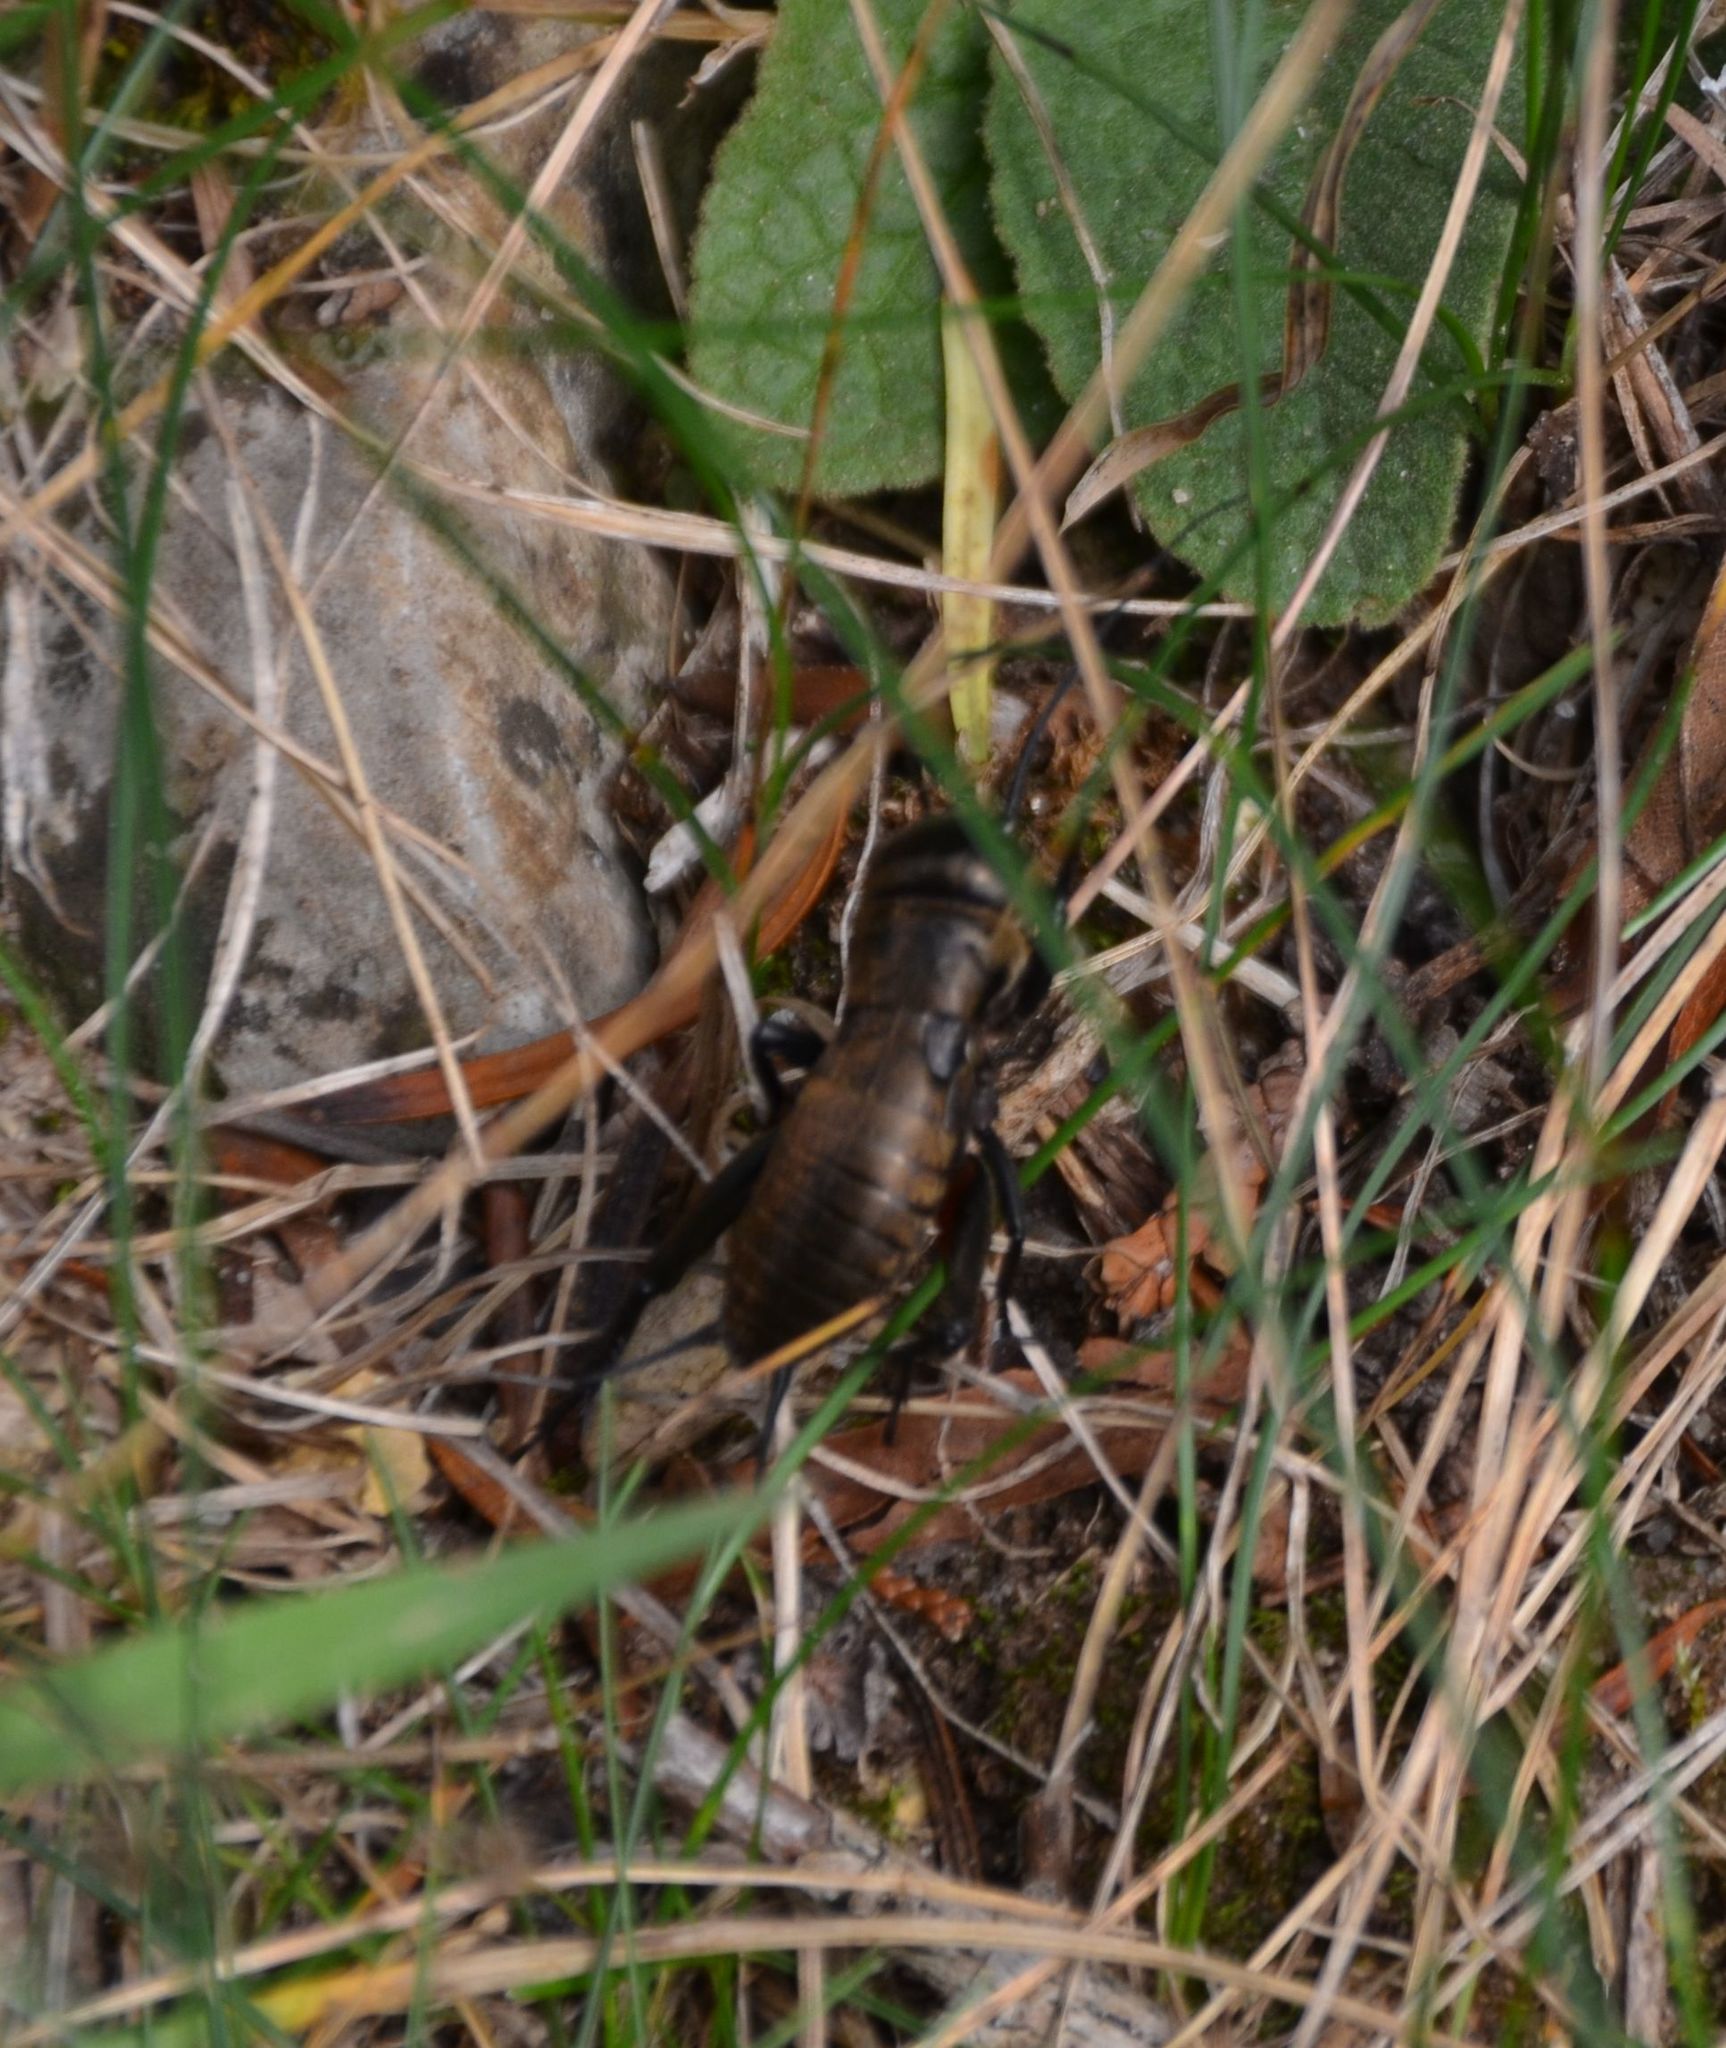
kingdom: Animalia
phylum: Arthropoda
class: Insecta
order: Orthoptera
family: Gryllidae
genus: Gryllus
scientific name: Gryllus campestris
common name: Field cricket
